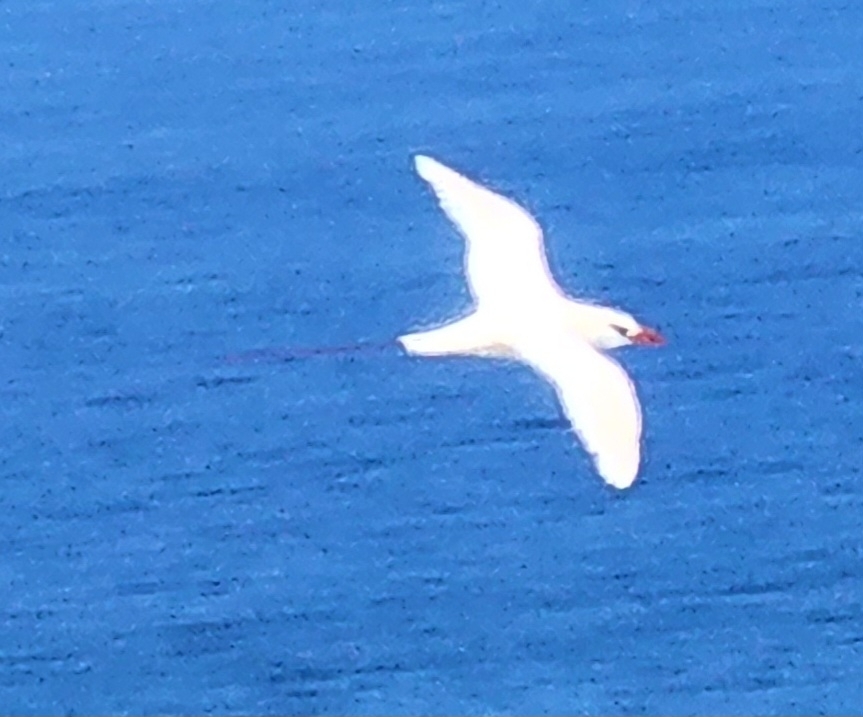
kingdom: Animalia
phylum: Chordata
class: Aves
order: Phaethontiformes
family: Phaethontidae
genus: Phaethon
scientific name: Phaethon rubricauda
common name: Red-tailed tropicbird
